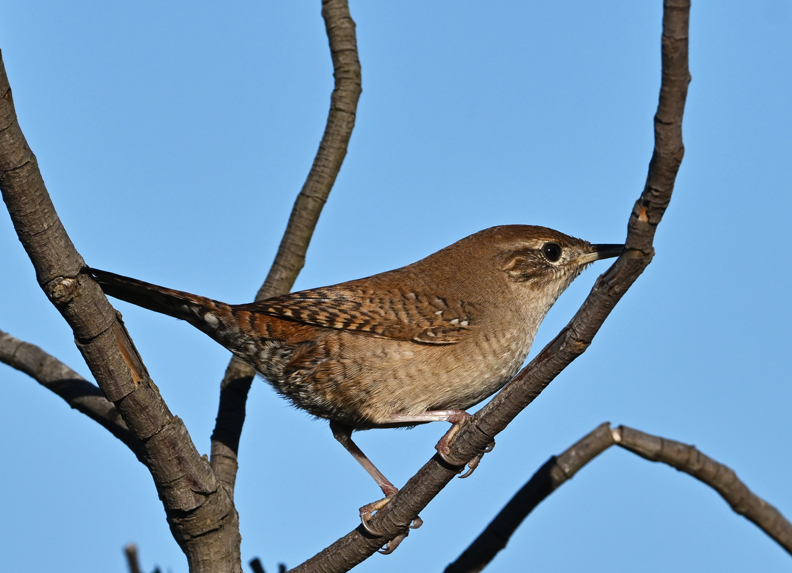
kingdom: Animalia
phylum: Chordata
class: Aves
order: Passeriformes
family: Troglodytidae
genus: Troglodytes
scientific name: Troglodytes aedon
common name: House wren
